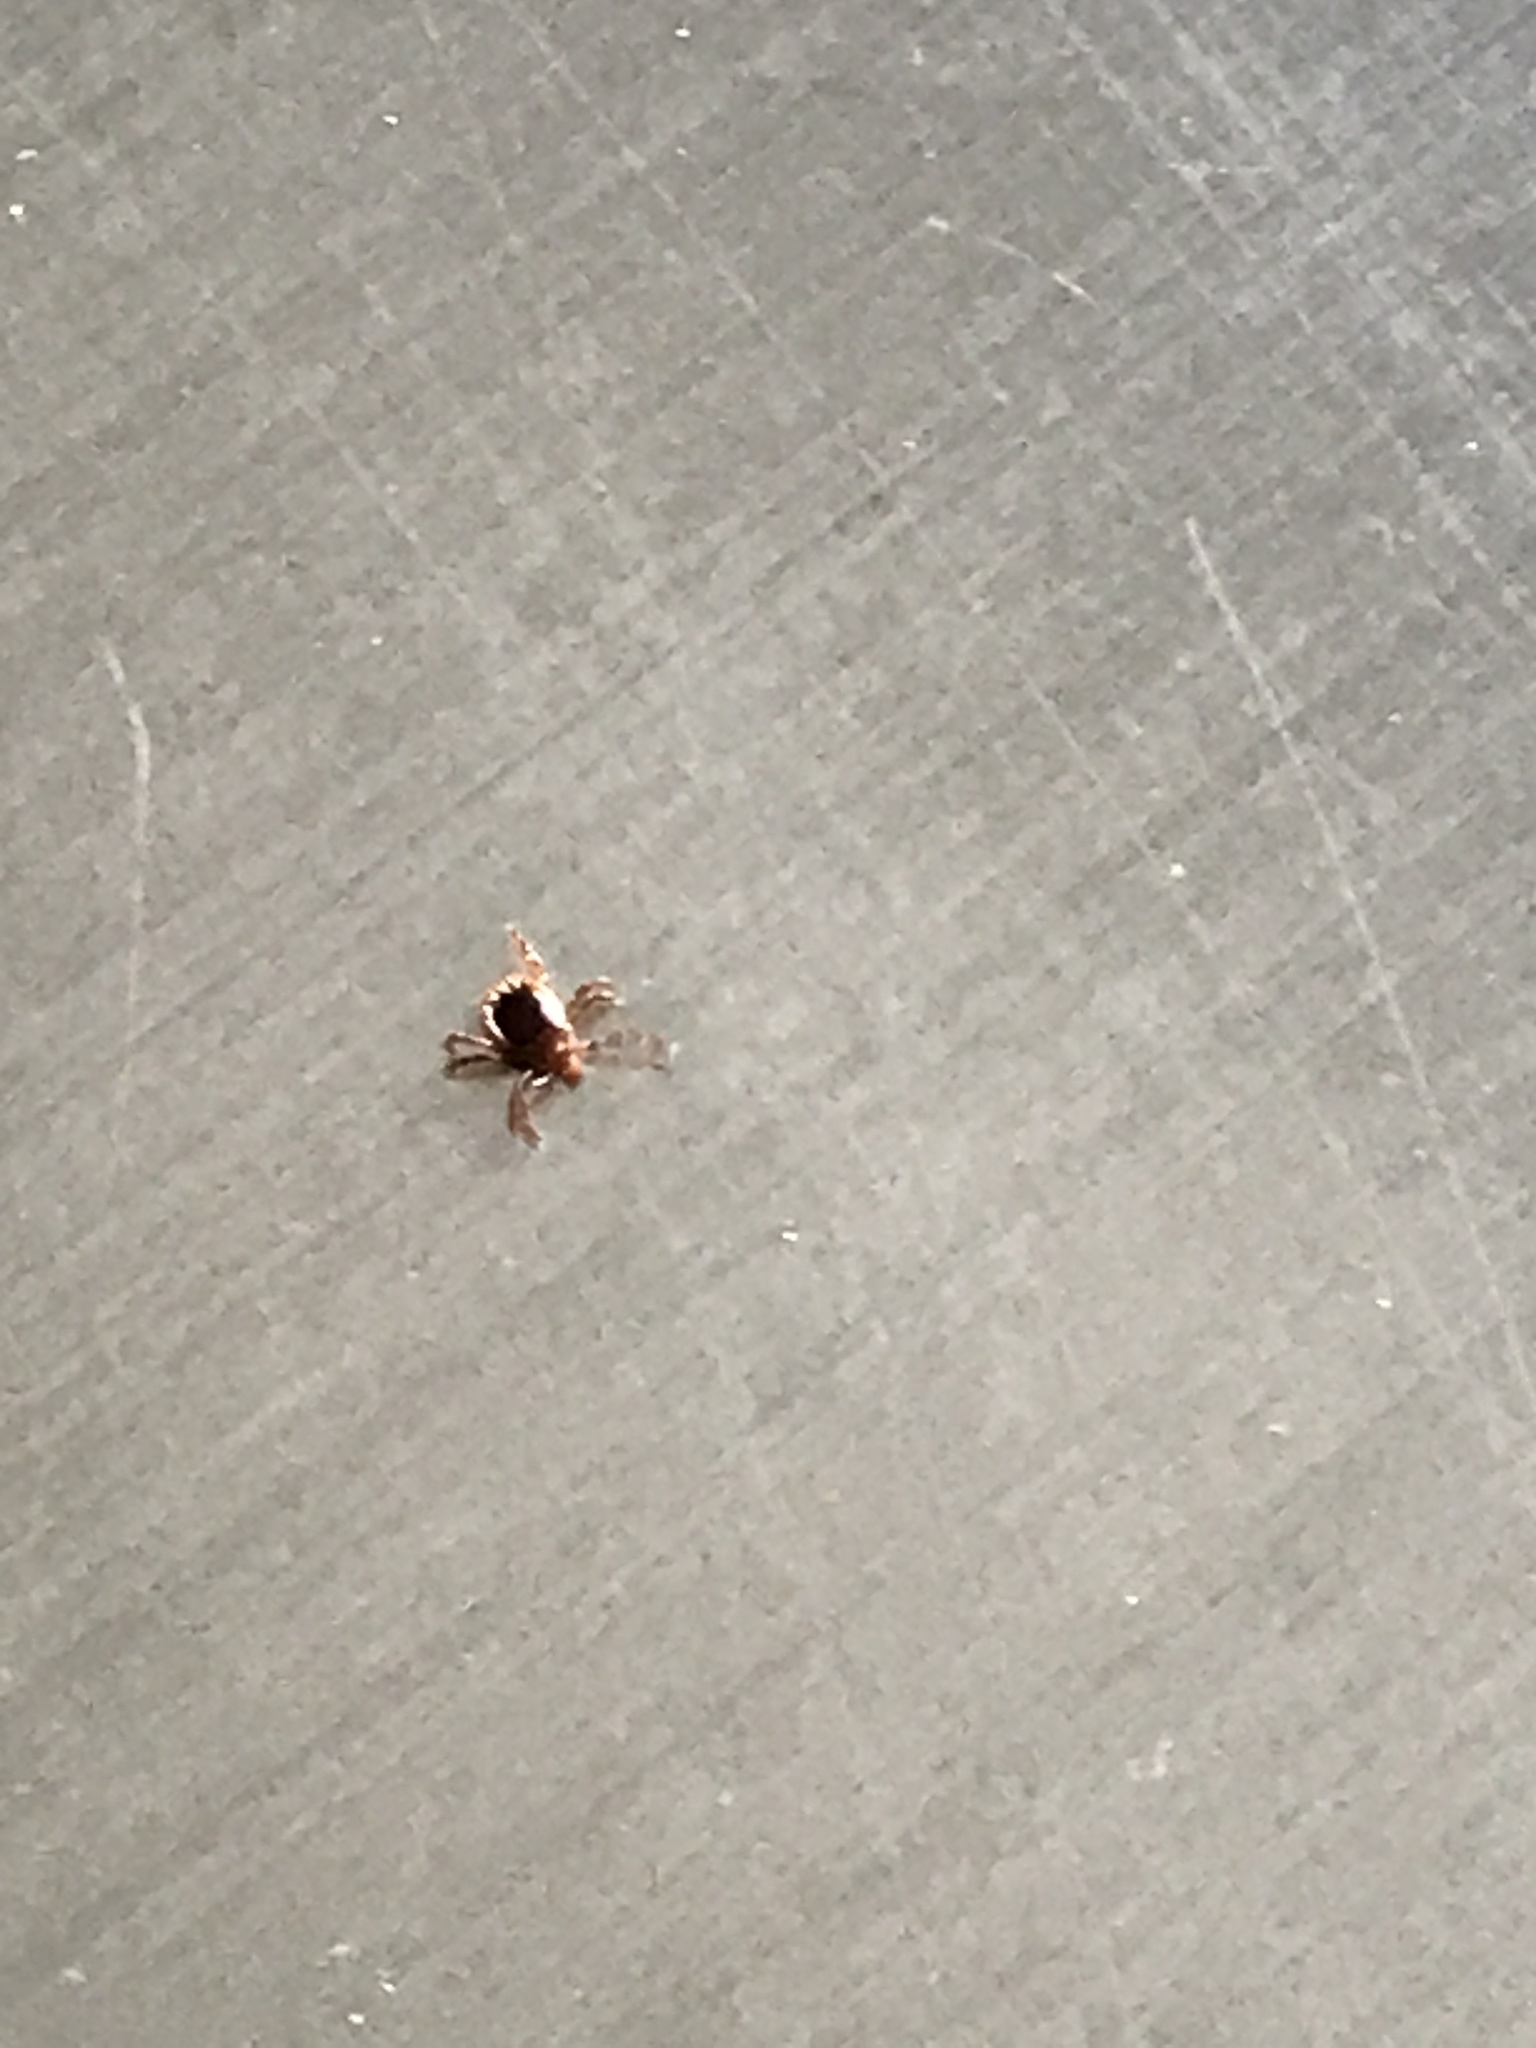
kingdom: Animalia
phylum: Arthropoda
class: Arachnida
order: Ixodida
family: Ixodidae
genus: Amblyomma
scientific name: Amblyomma americanum
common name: Lone star tick
